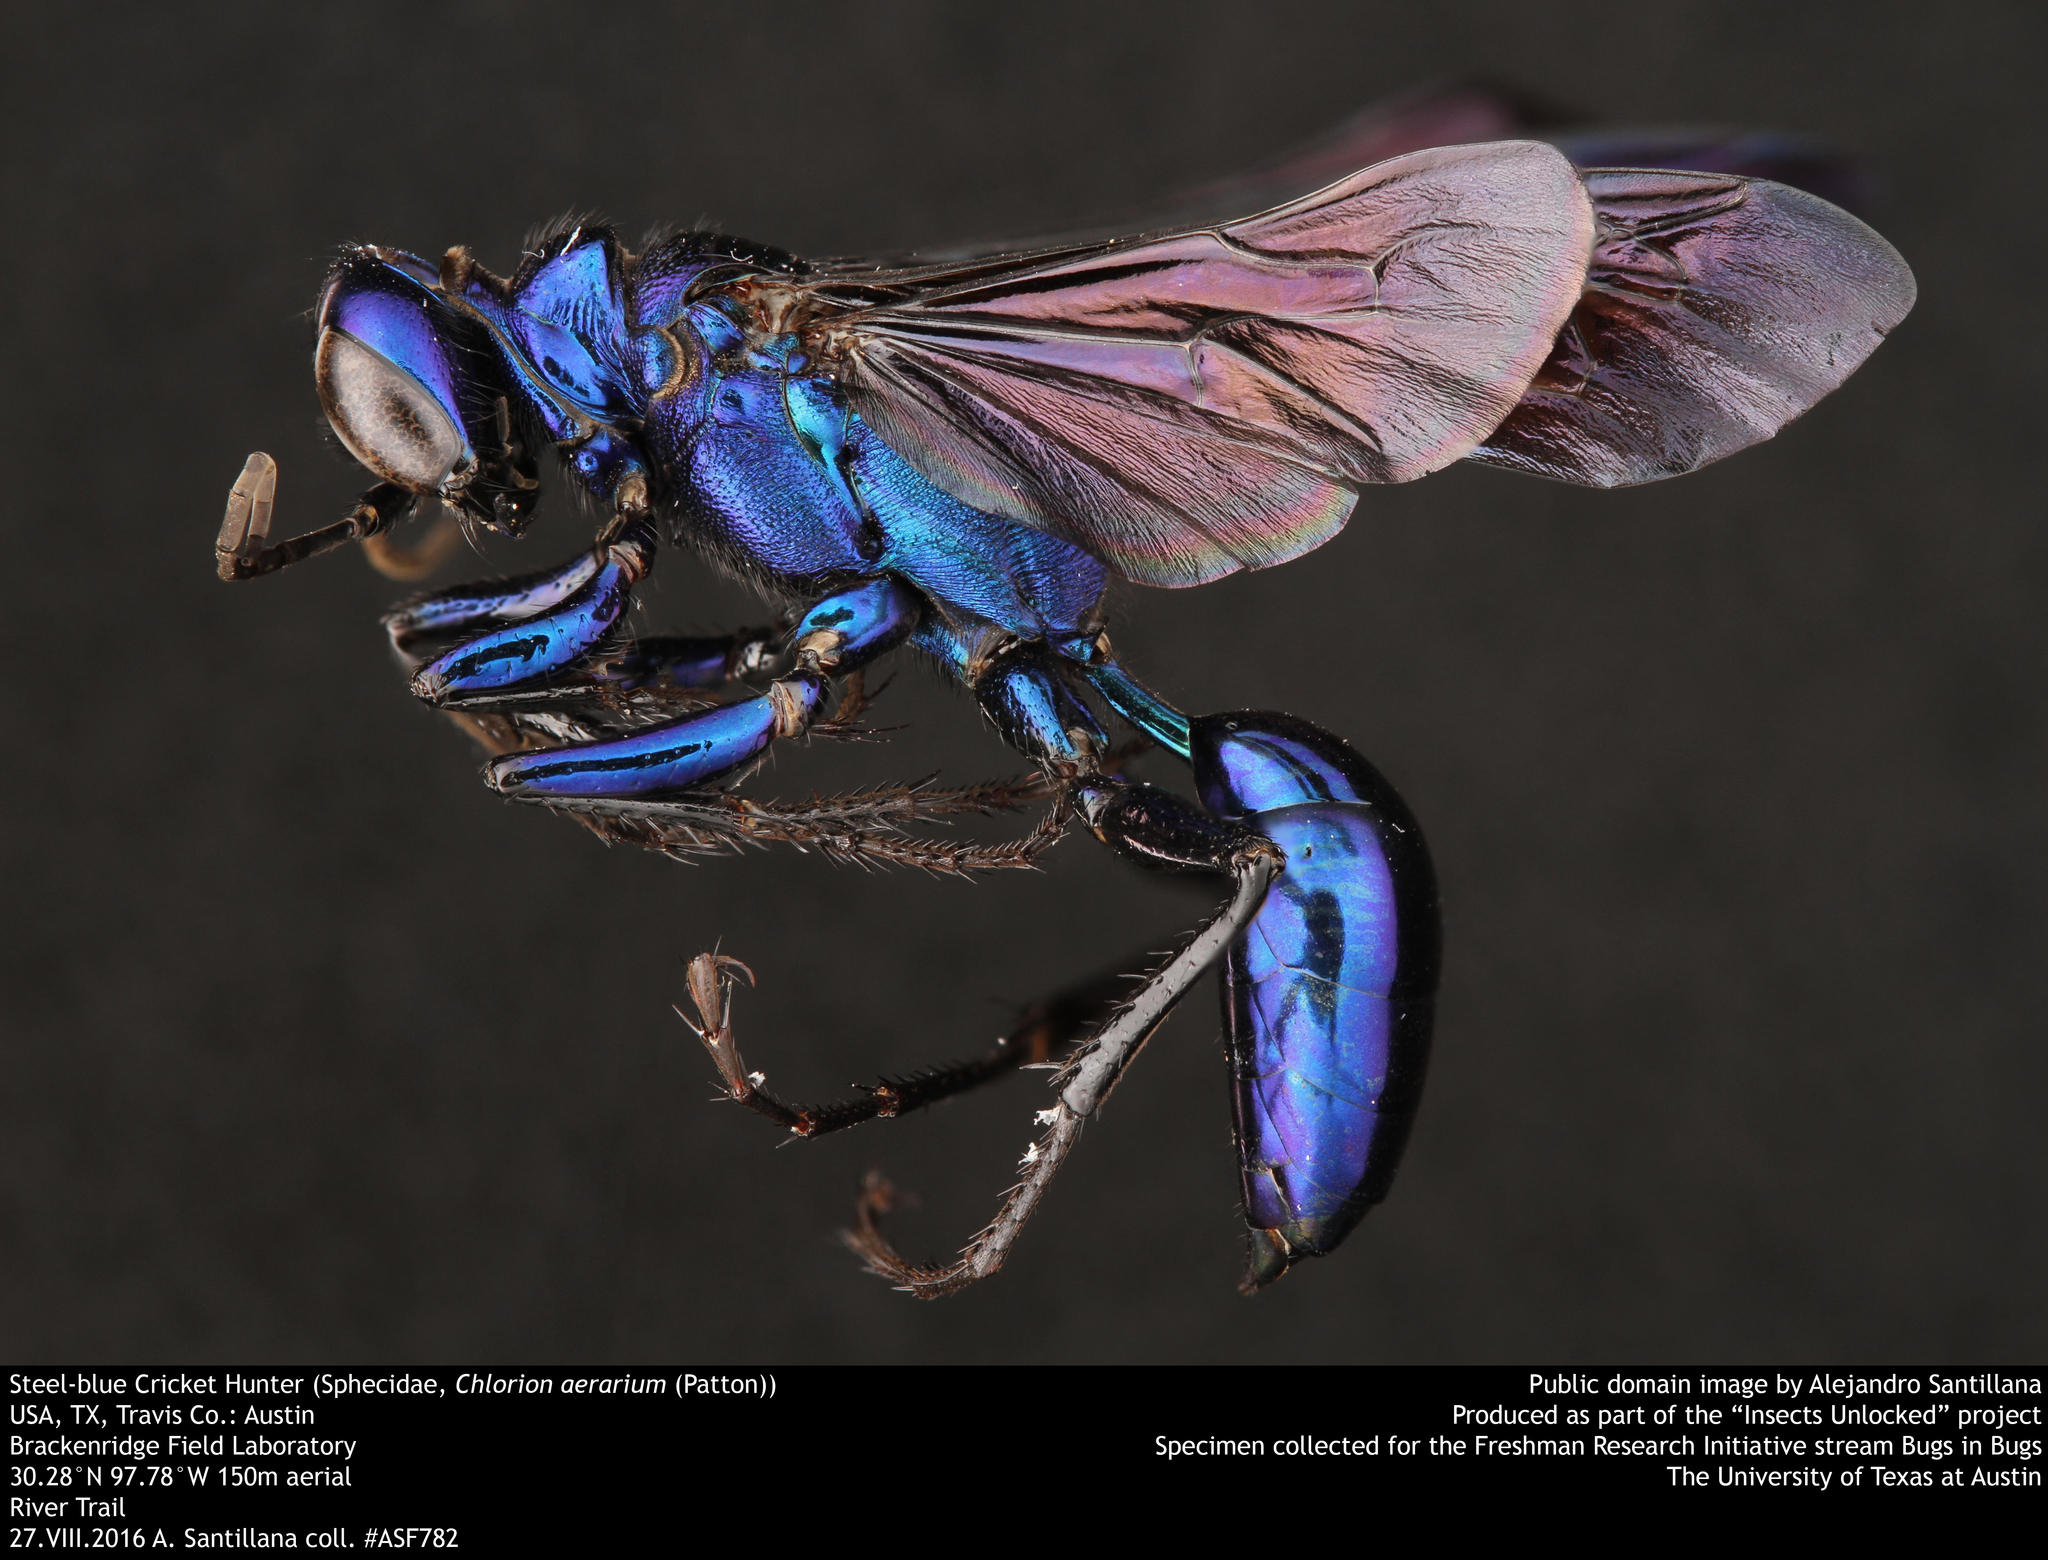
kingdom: Animalia
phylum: Arthropoda
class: Insecta
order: Hymenoptera
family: Sphecidae
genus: Chlorion
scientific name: Chlorion aerarium
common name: Steel-blue cricket hunter
